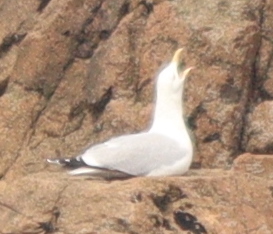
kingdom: Animalia
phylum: Chordata
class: Aves
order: Charadriiformes
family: Laridae
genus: Larus
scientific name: Larus argentatus
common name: Herring gull
